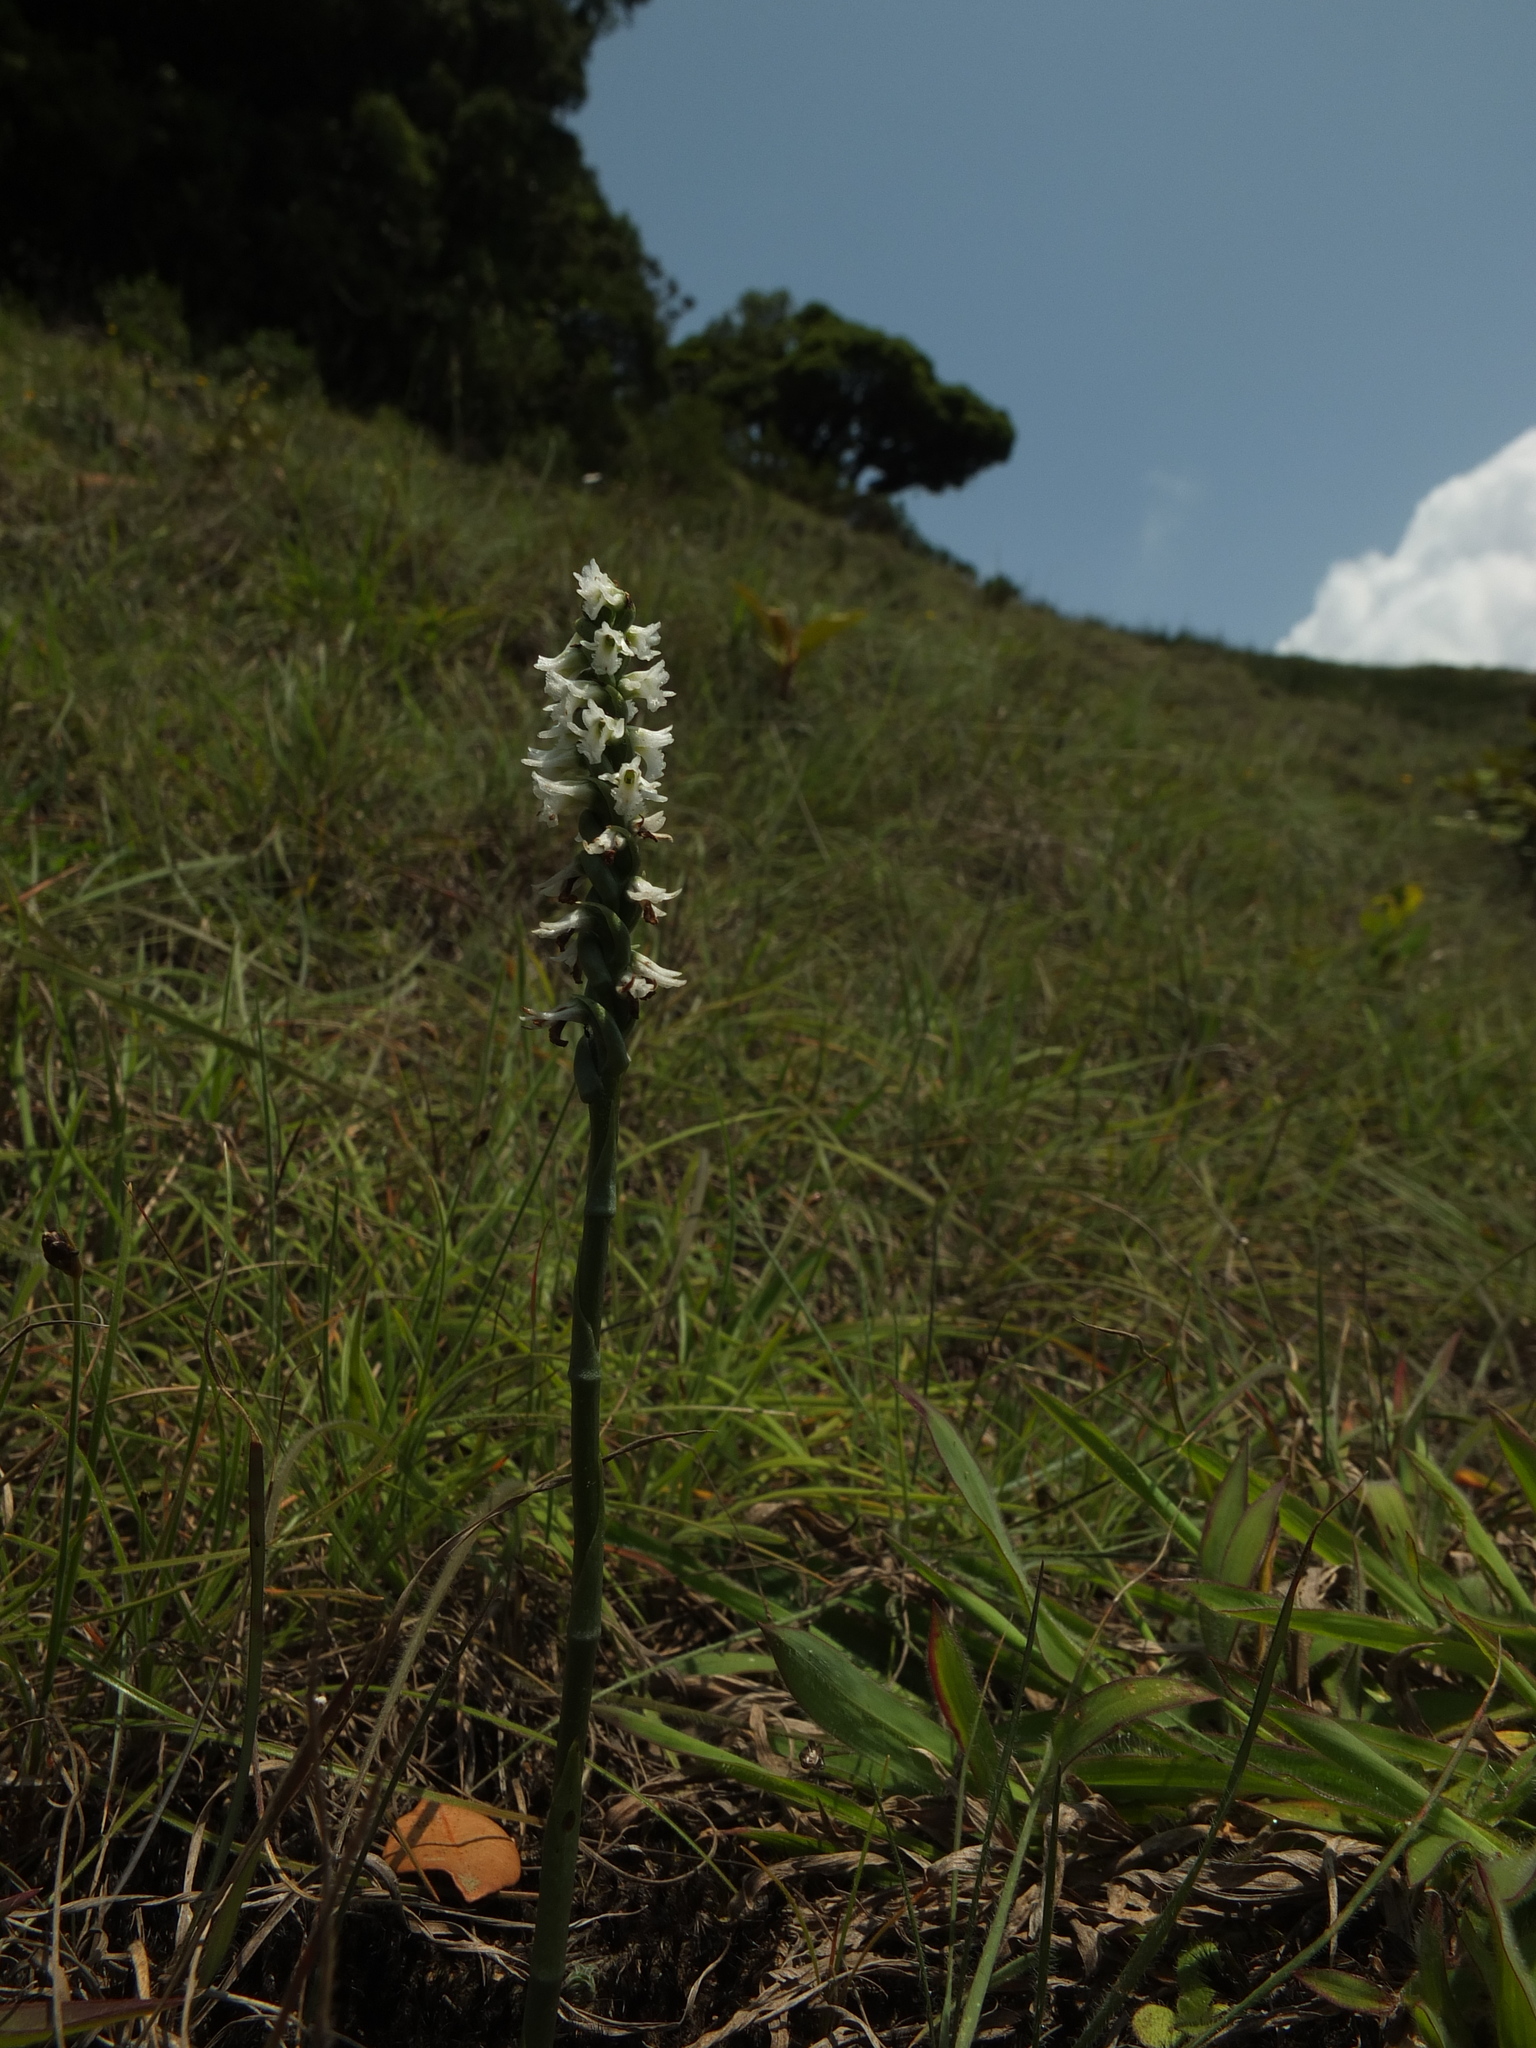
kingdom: Plantae
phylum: Tracheophyta
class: Liliopsida
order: Asparagales
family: Orchidaceae
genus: Spiranthes
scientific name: Spiranthes flexuosa
